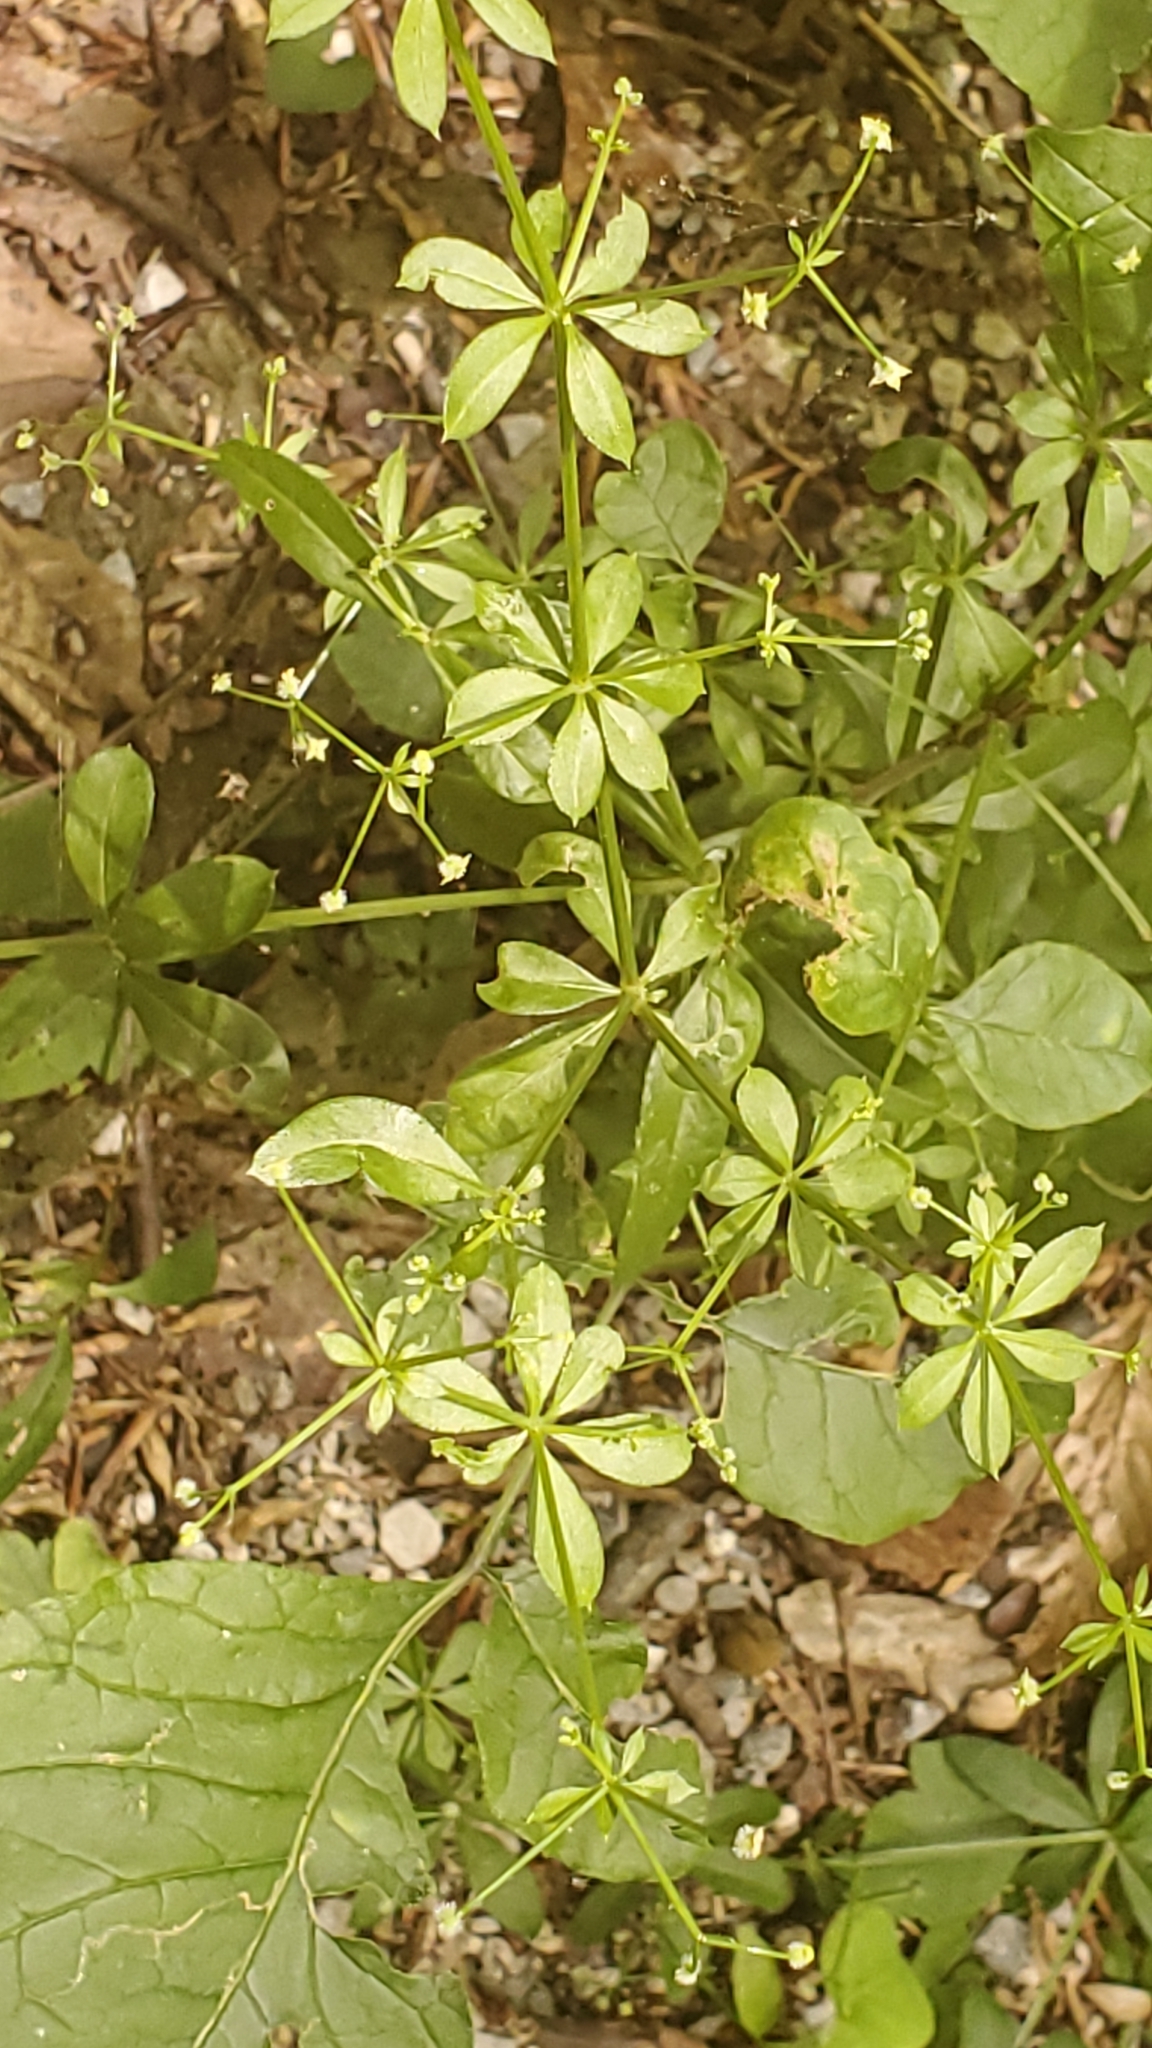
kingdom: Plantae
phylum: Tracheophyta
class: Magnoliopsida
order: Gentianales
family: Rubiaceae
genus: Galium
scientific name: Galium triflorum
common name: Fragrant bedstraw
